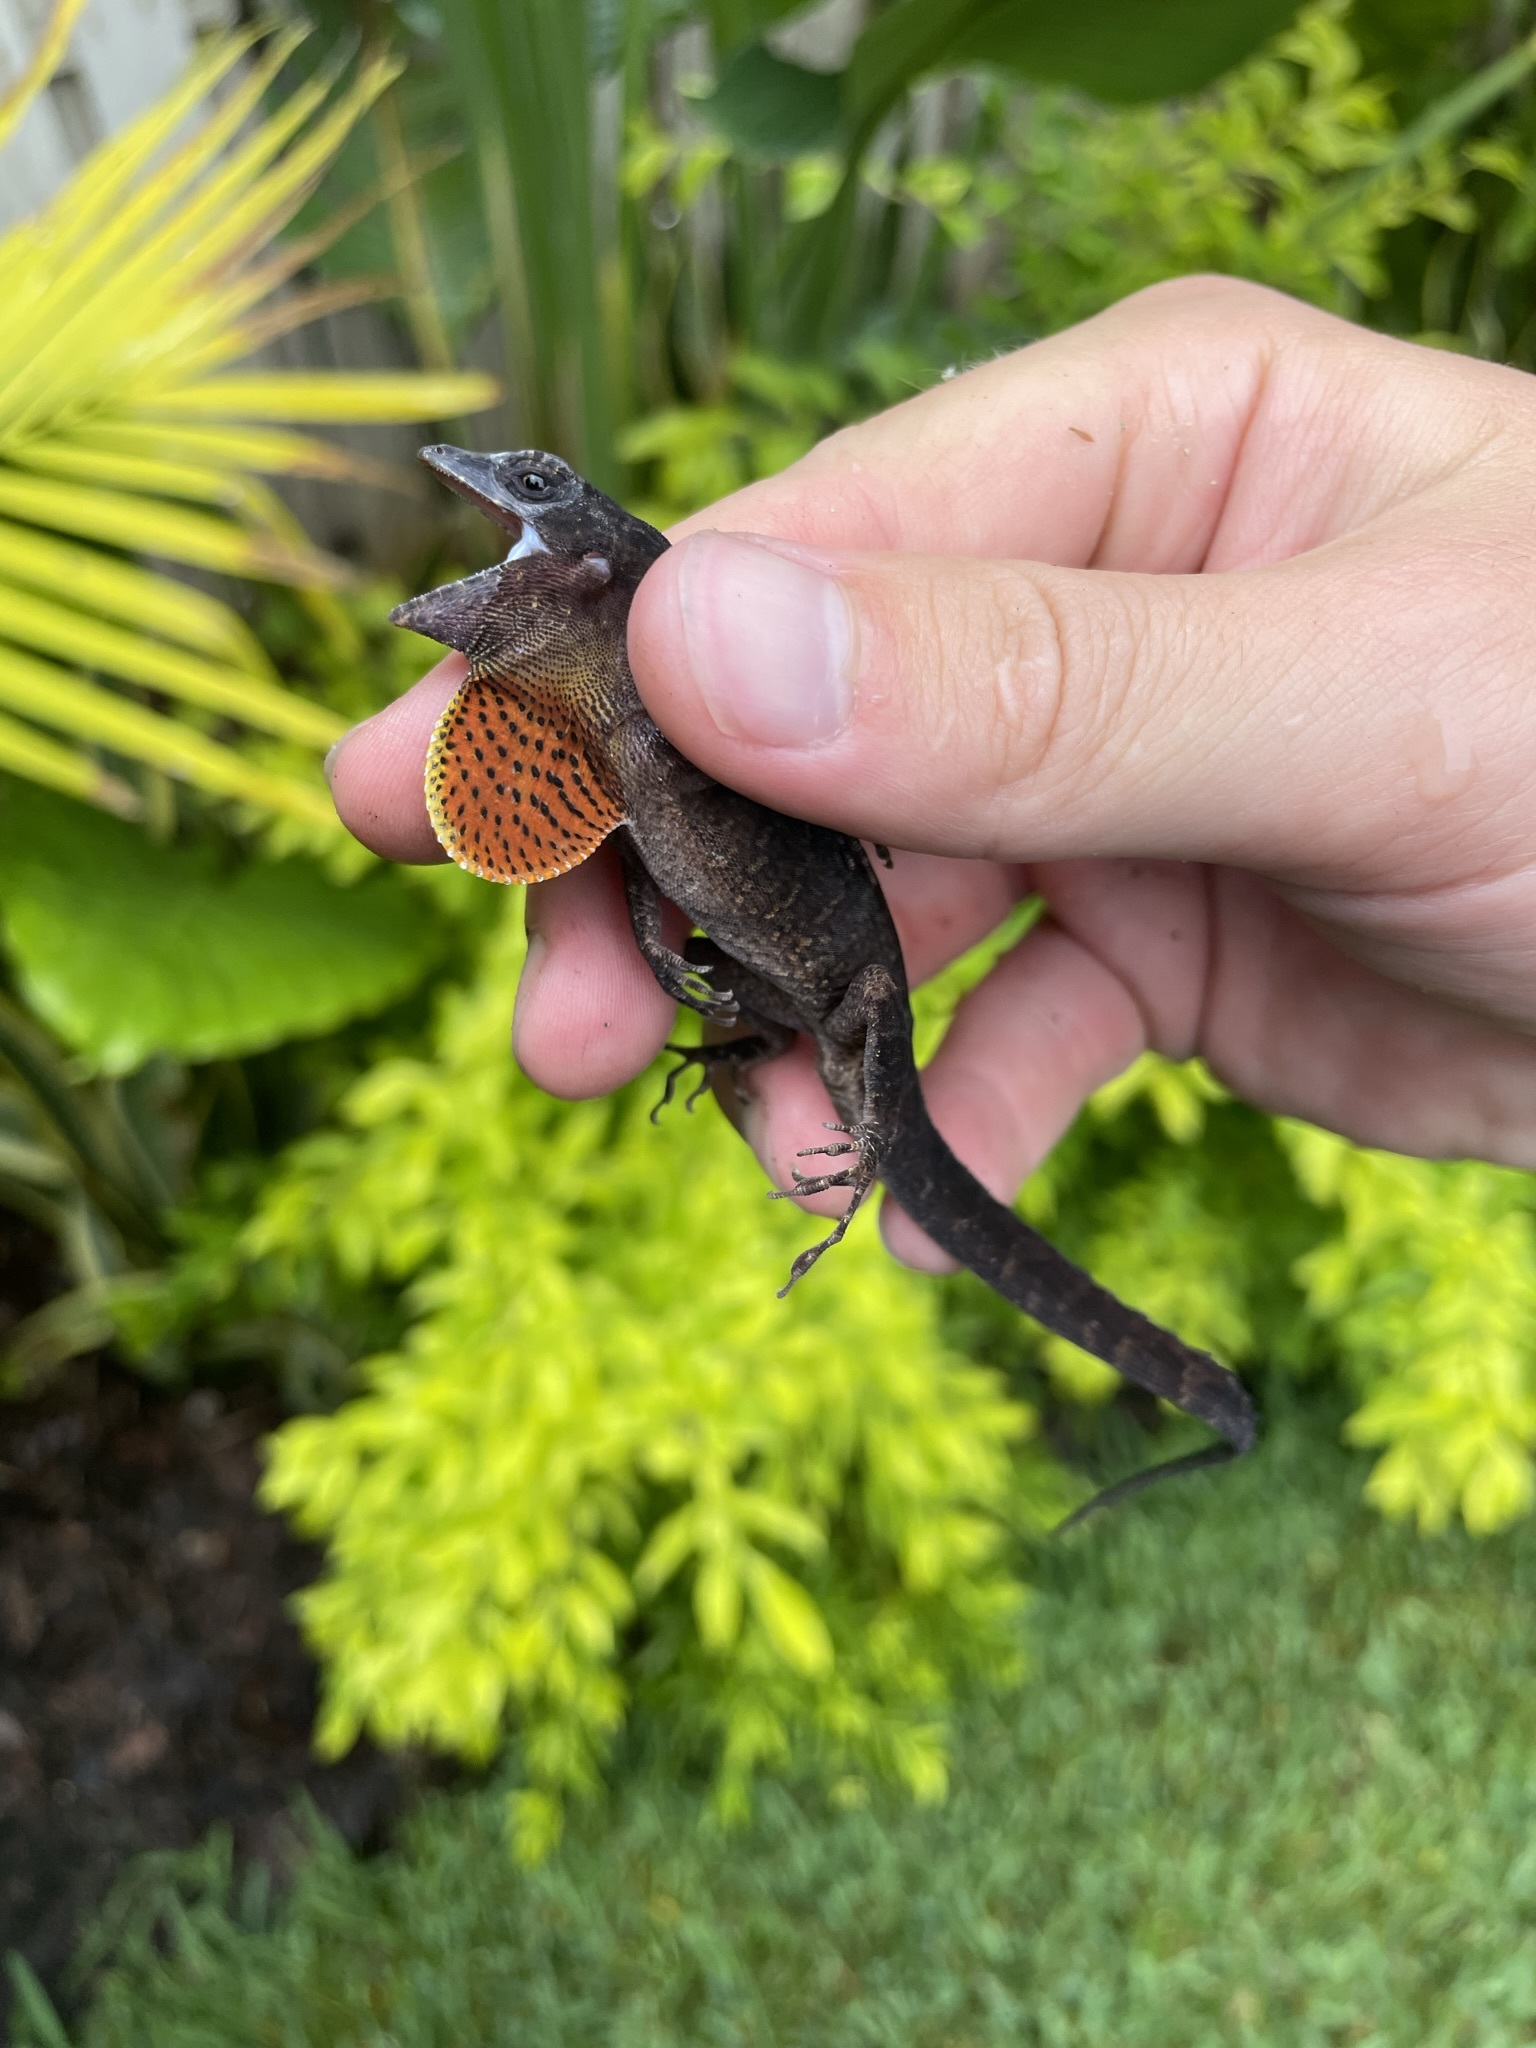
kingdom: Animalia
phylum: Chordata
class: Squamata
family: Dactyloidae
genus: Anolis
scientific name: Anolis sagrei
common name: Brown anole
